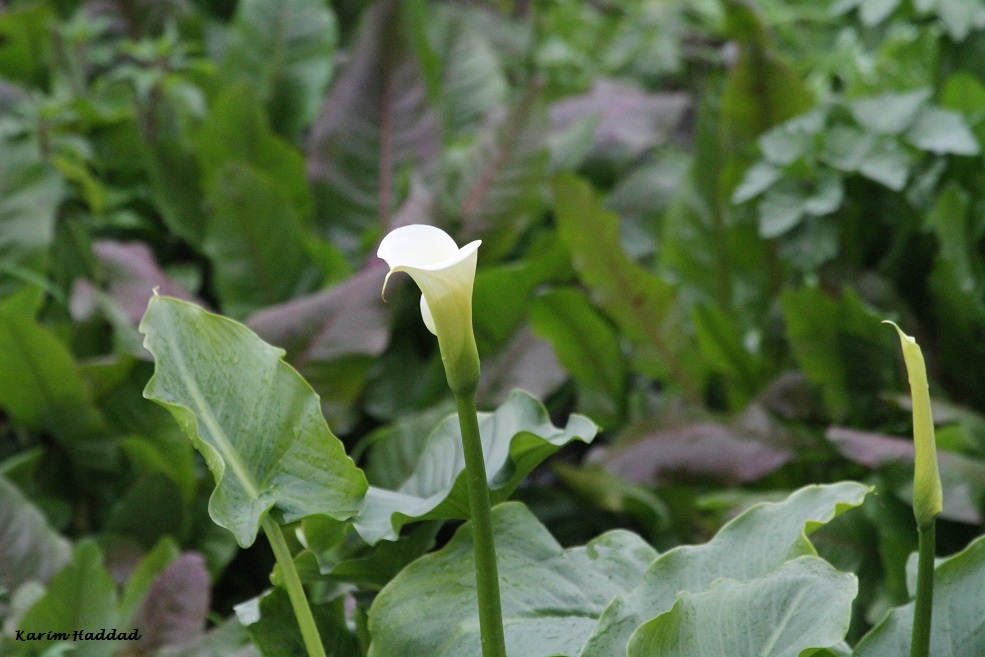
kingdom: Plantae
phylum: Tracheophyta
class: Liliopsida
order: Alismatales
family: Araceae
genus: Zantedeschia
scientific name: Zantedeschia aethiopica
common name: Altar-lily
